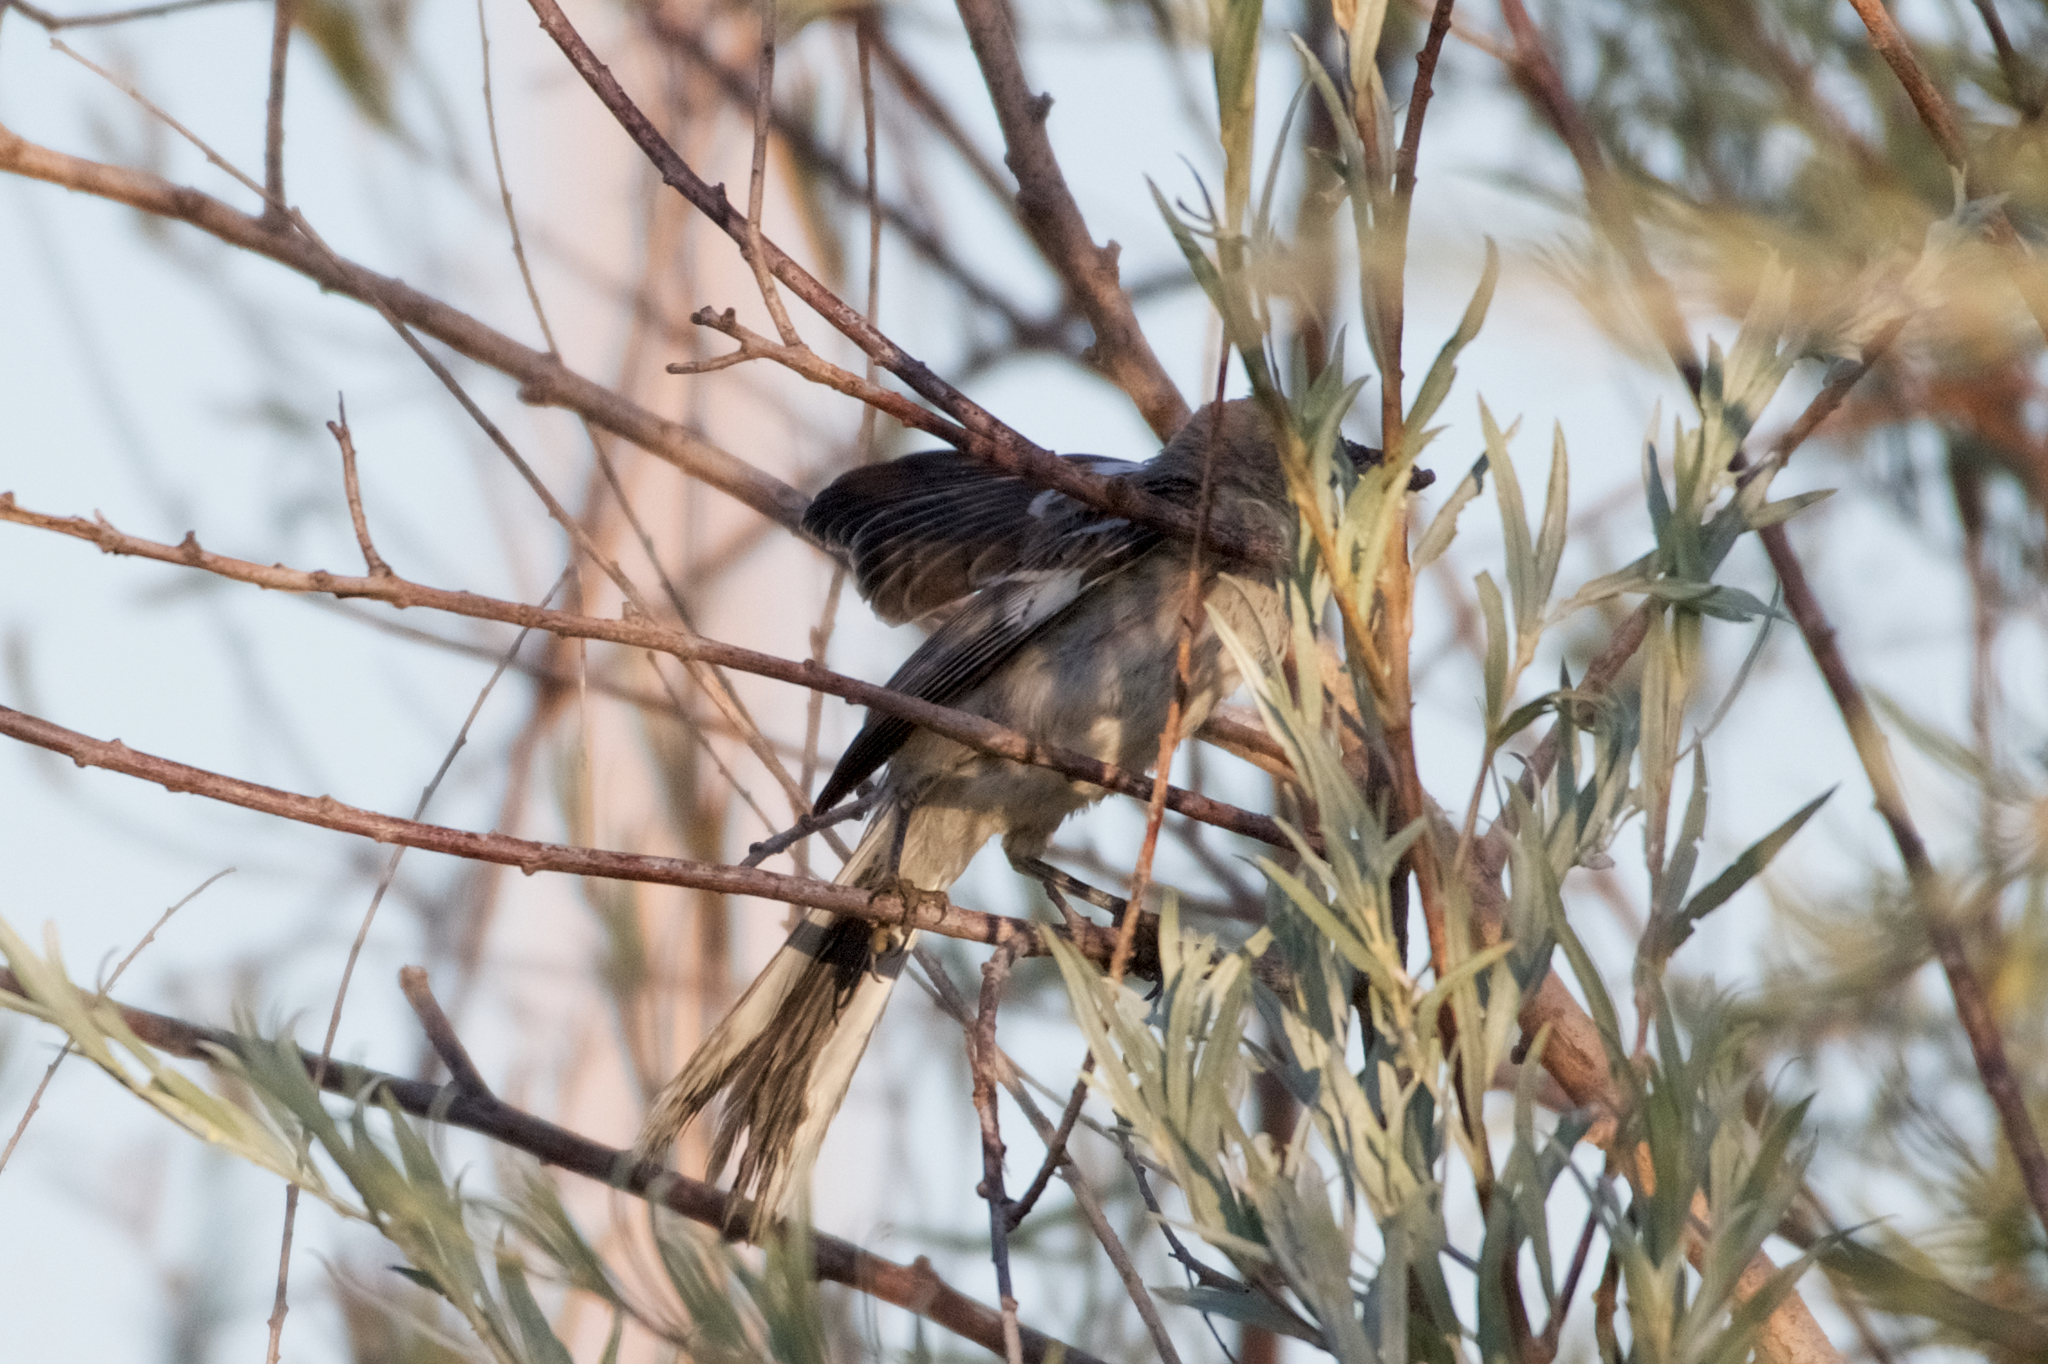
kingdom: Animalia
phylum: Chordata
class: Aves
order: Passeriformes
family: Mimidae
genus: Mimus
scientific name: Mimus polyglottos
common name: Northern mockingbird
